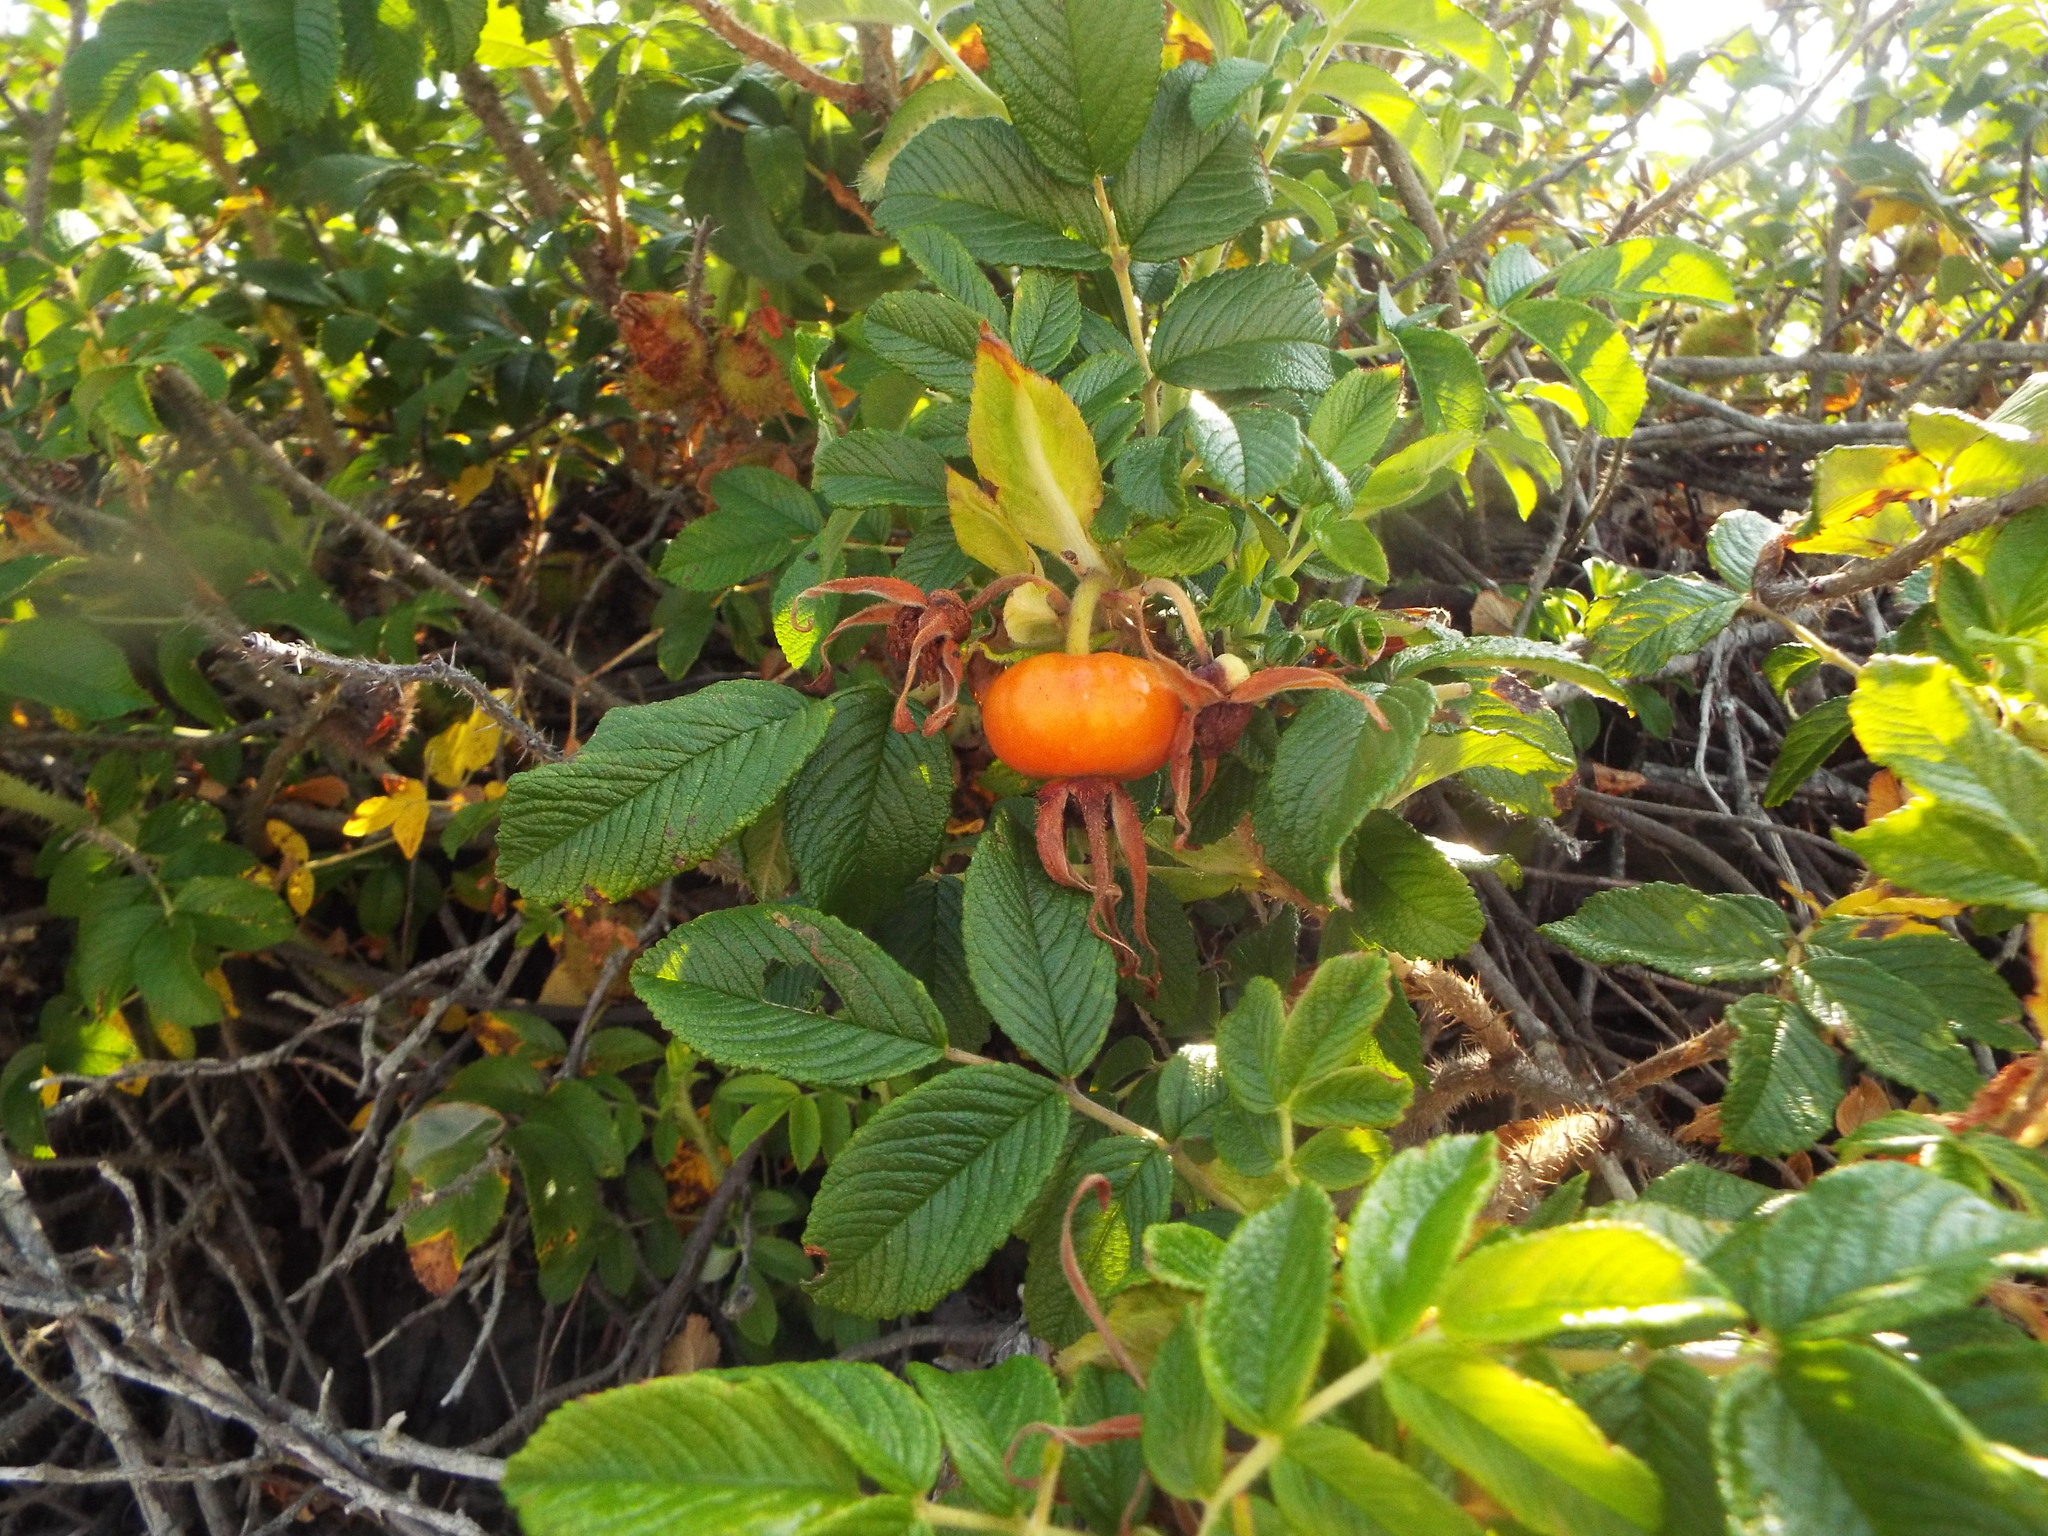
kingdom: Plantae
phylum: Tracheophyta
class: Magnoliopsida
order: Rosales
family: Rosaceae
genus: Rosa
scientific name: Rosa rugosa
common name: Japanese rose
